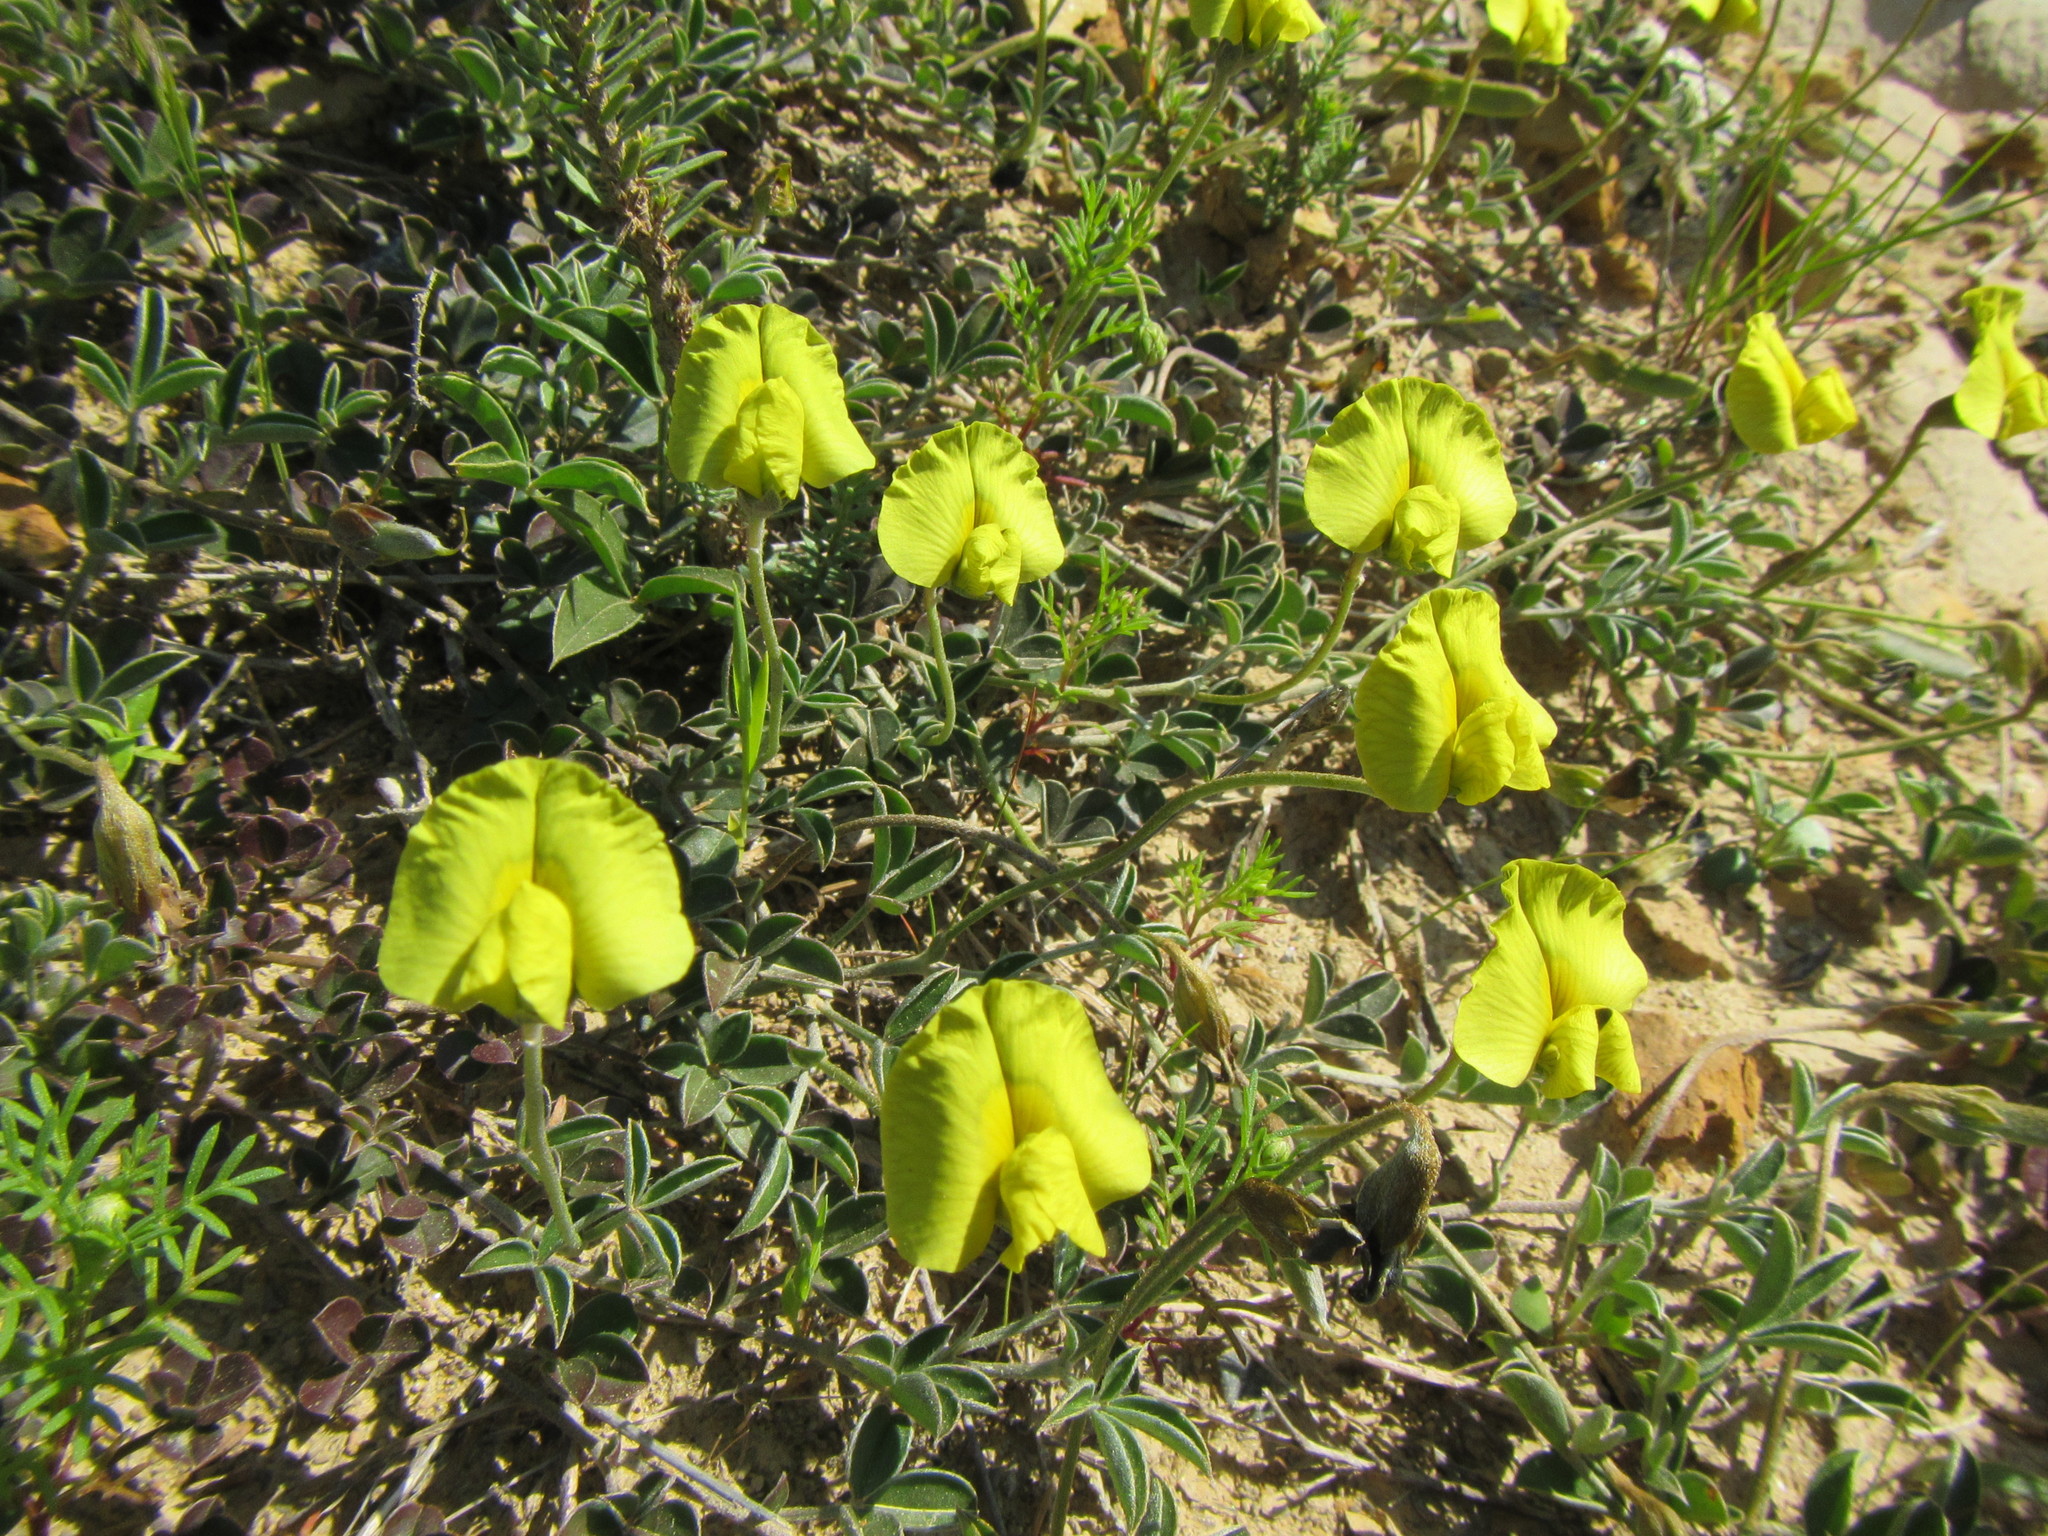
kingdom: Plantae
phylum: Tracheophyta
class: Magnoliopsida
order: Fabales
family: Fabaceae
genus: Lotononis
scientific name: Lotononis prostrata
